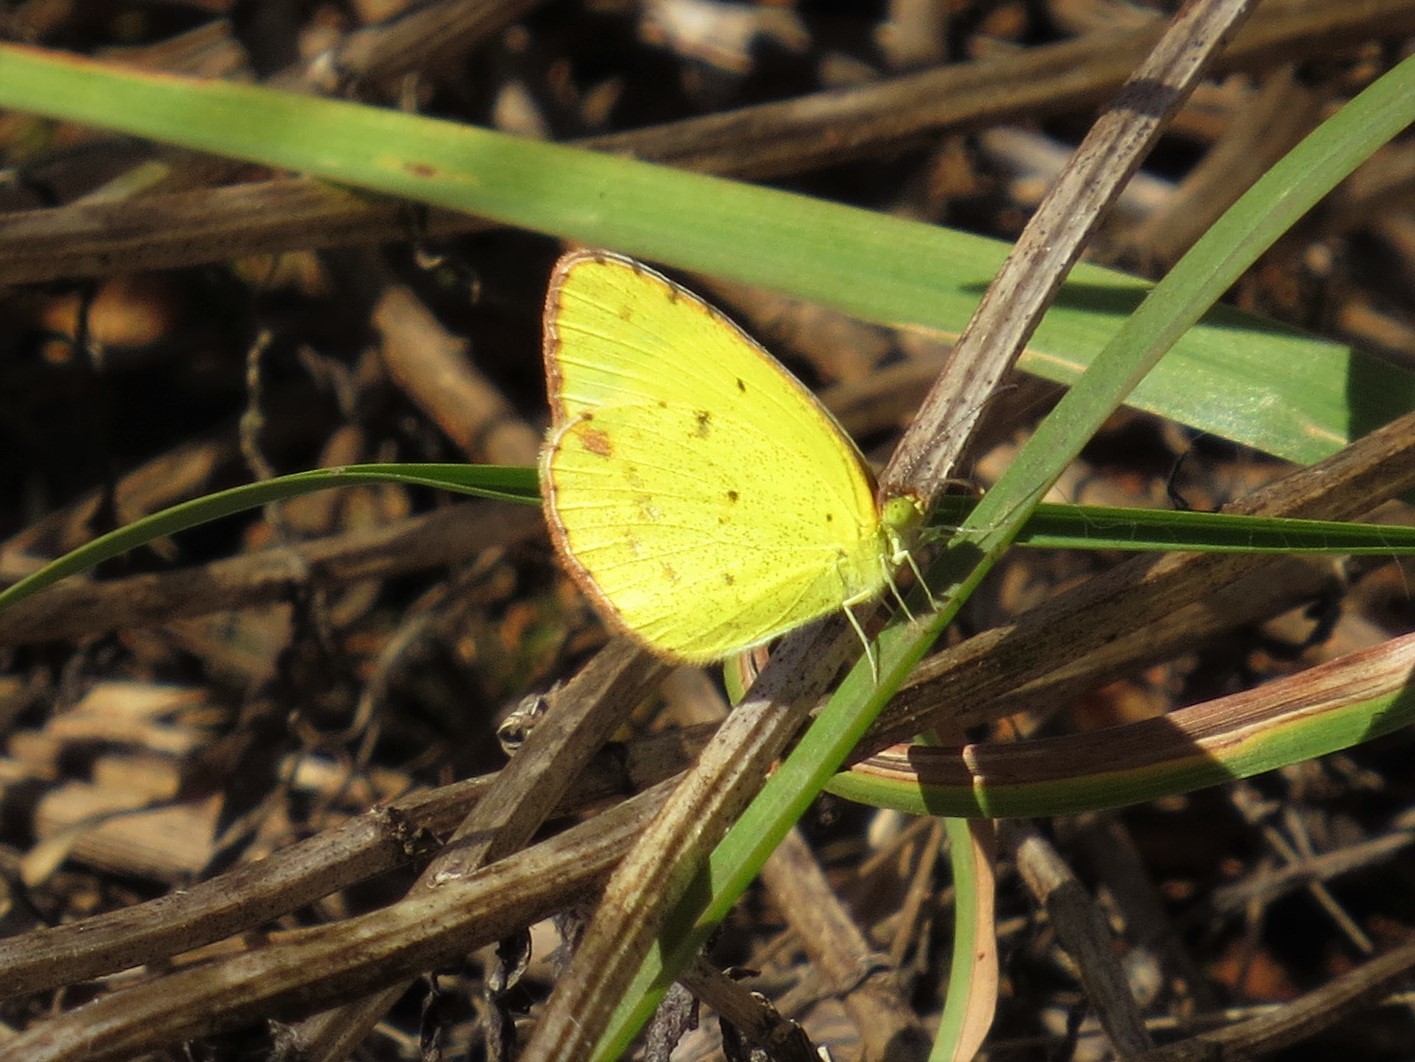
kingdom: Animalia
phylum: Arthropoda
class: Insecta
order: Lepidoptera
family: Pieridae
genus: Pyrisitia
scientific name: Pyrisitia lisa
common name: Little yellow
